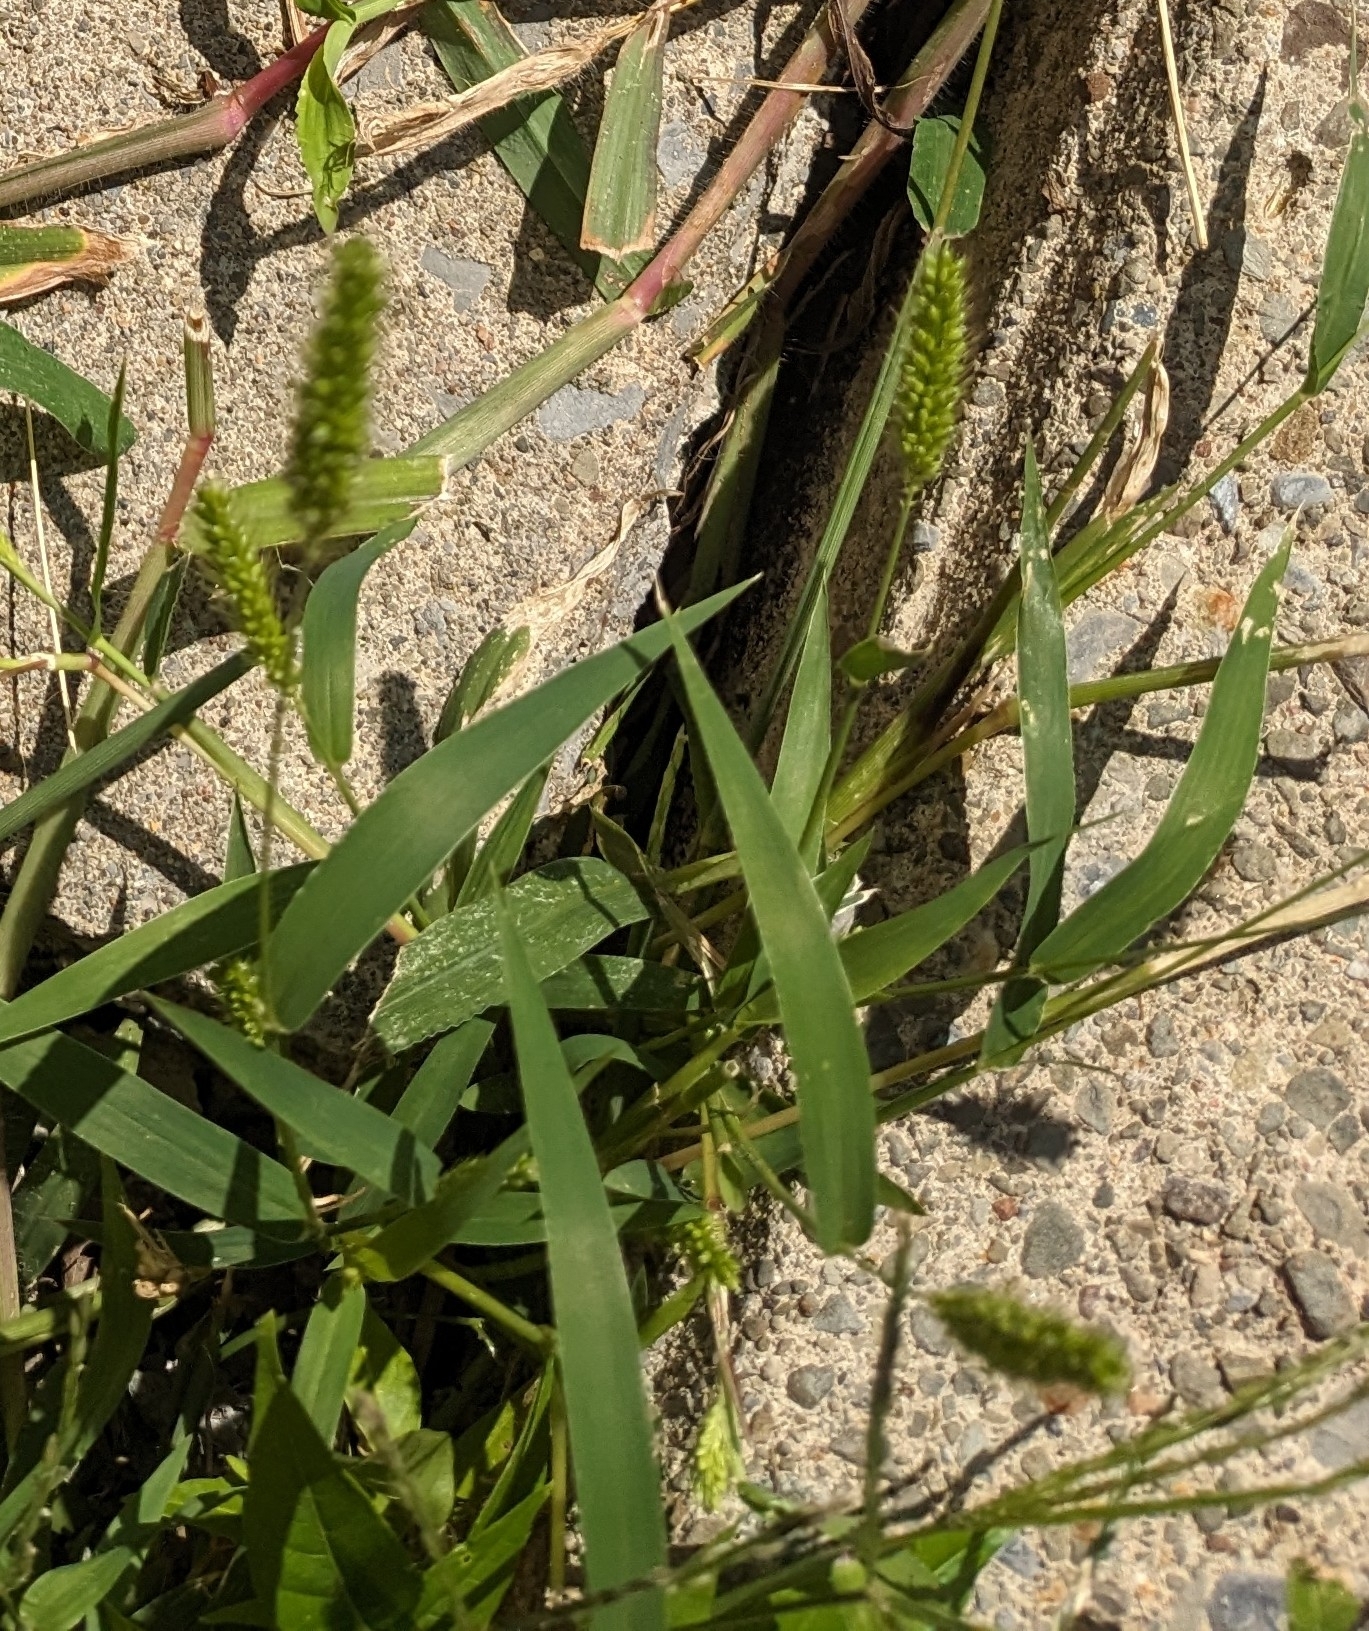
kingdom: Plantae
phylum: Tracheophyta
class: Liliopsida
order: Poales
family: Poaceae
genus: Setaria
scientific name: Setaria viridis
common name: Green bristlegrass
